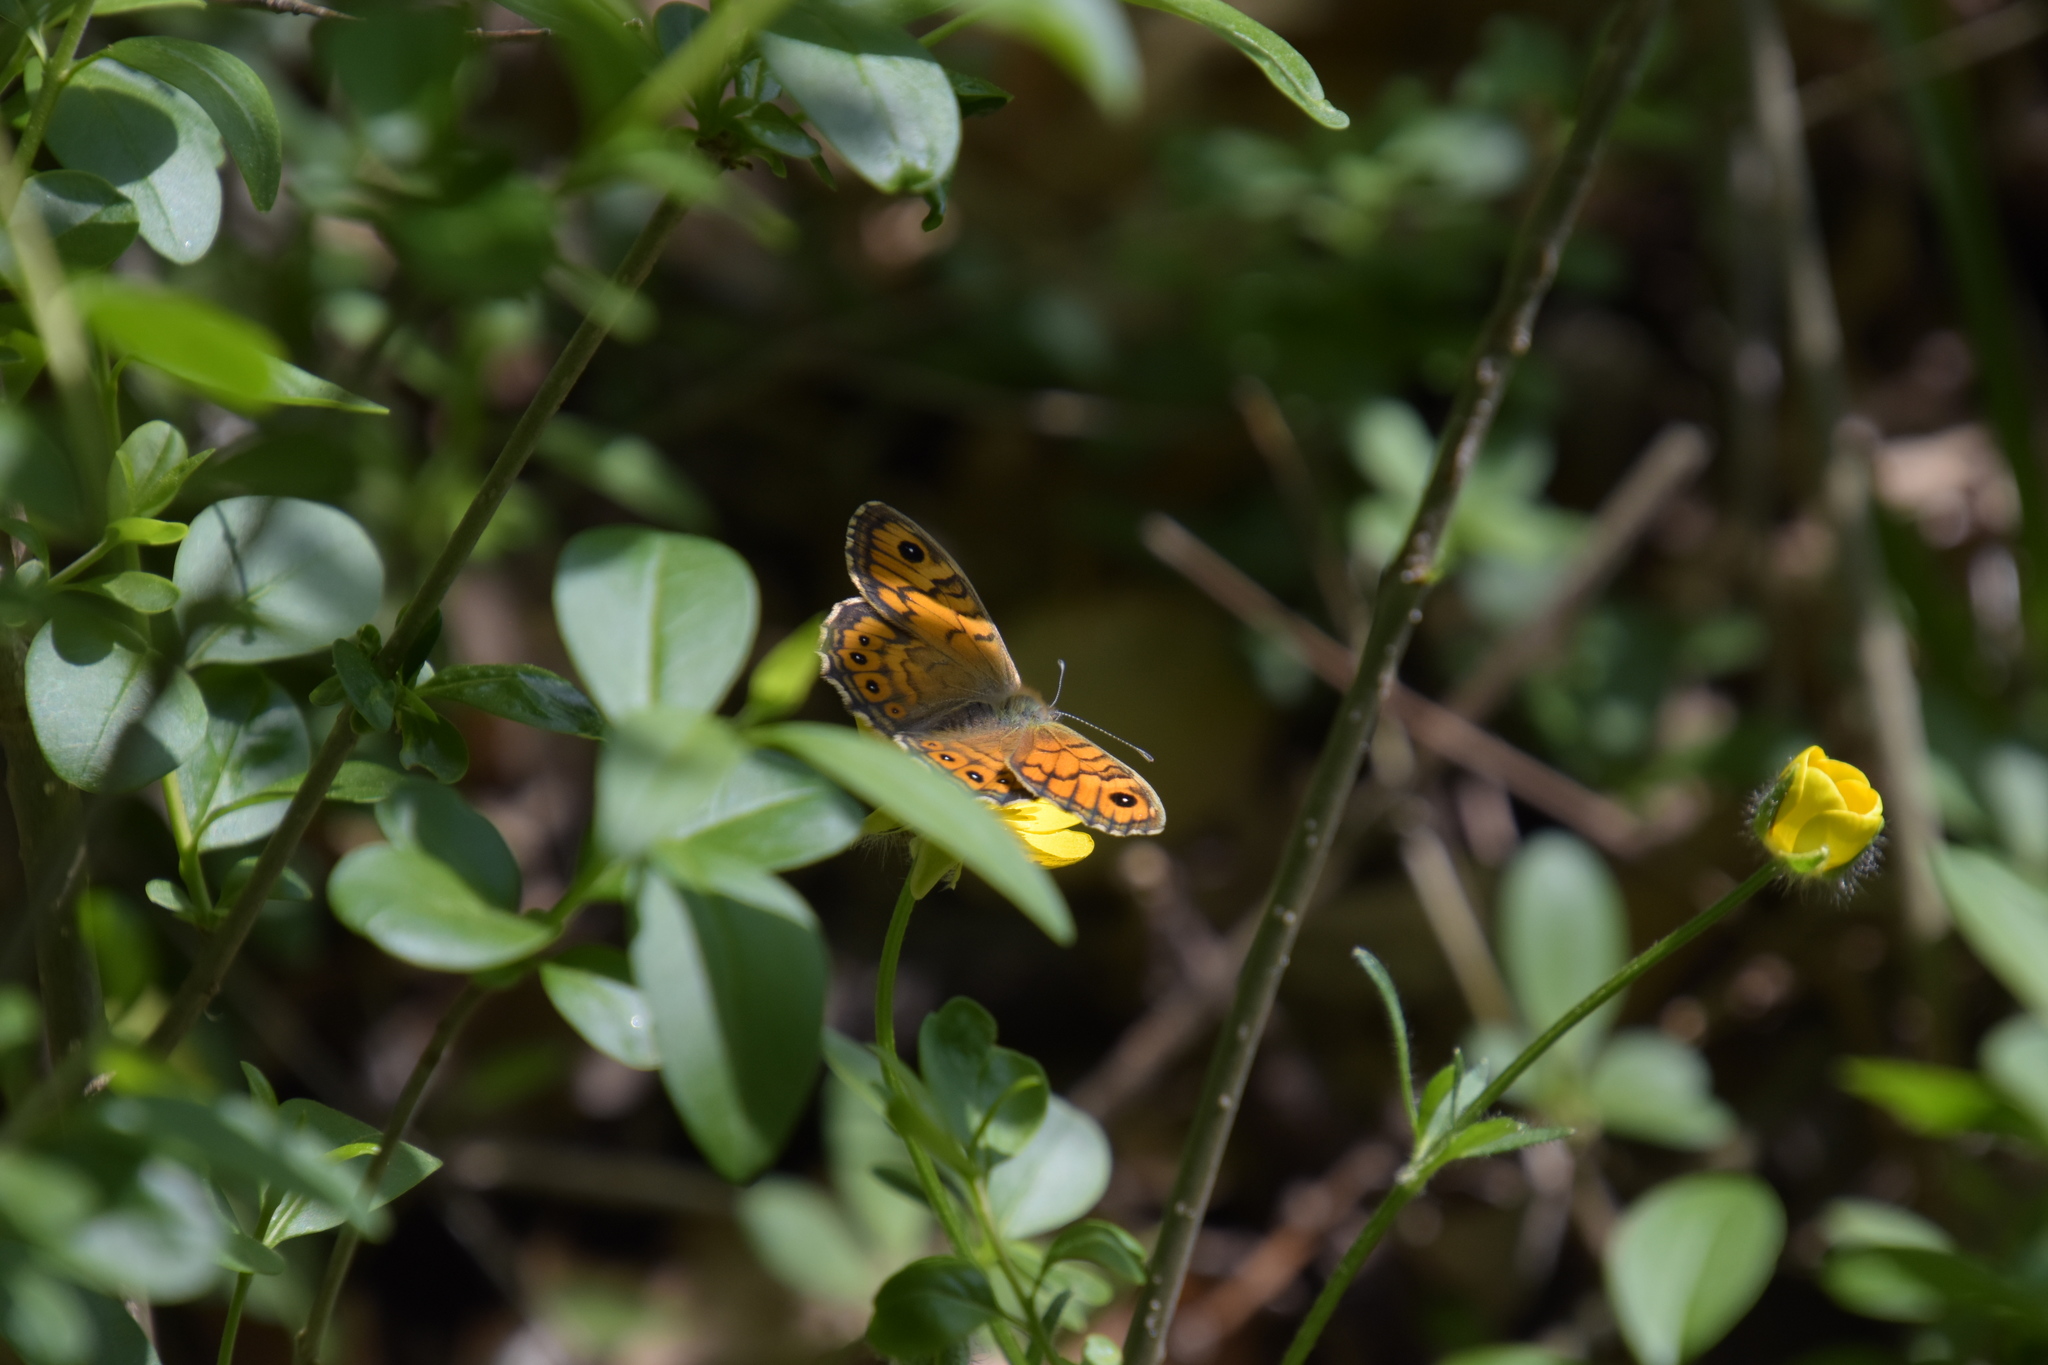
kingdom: Animalia
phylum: Arthropoda
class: Insecta
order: Lepidoptera
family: Nymphalidae
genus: Pararge
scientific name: Pararge Lasiommata megera
